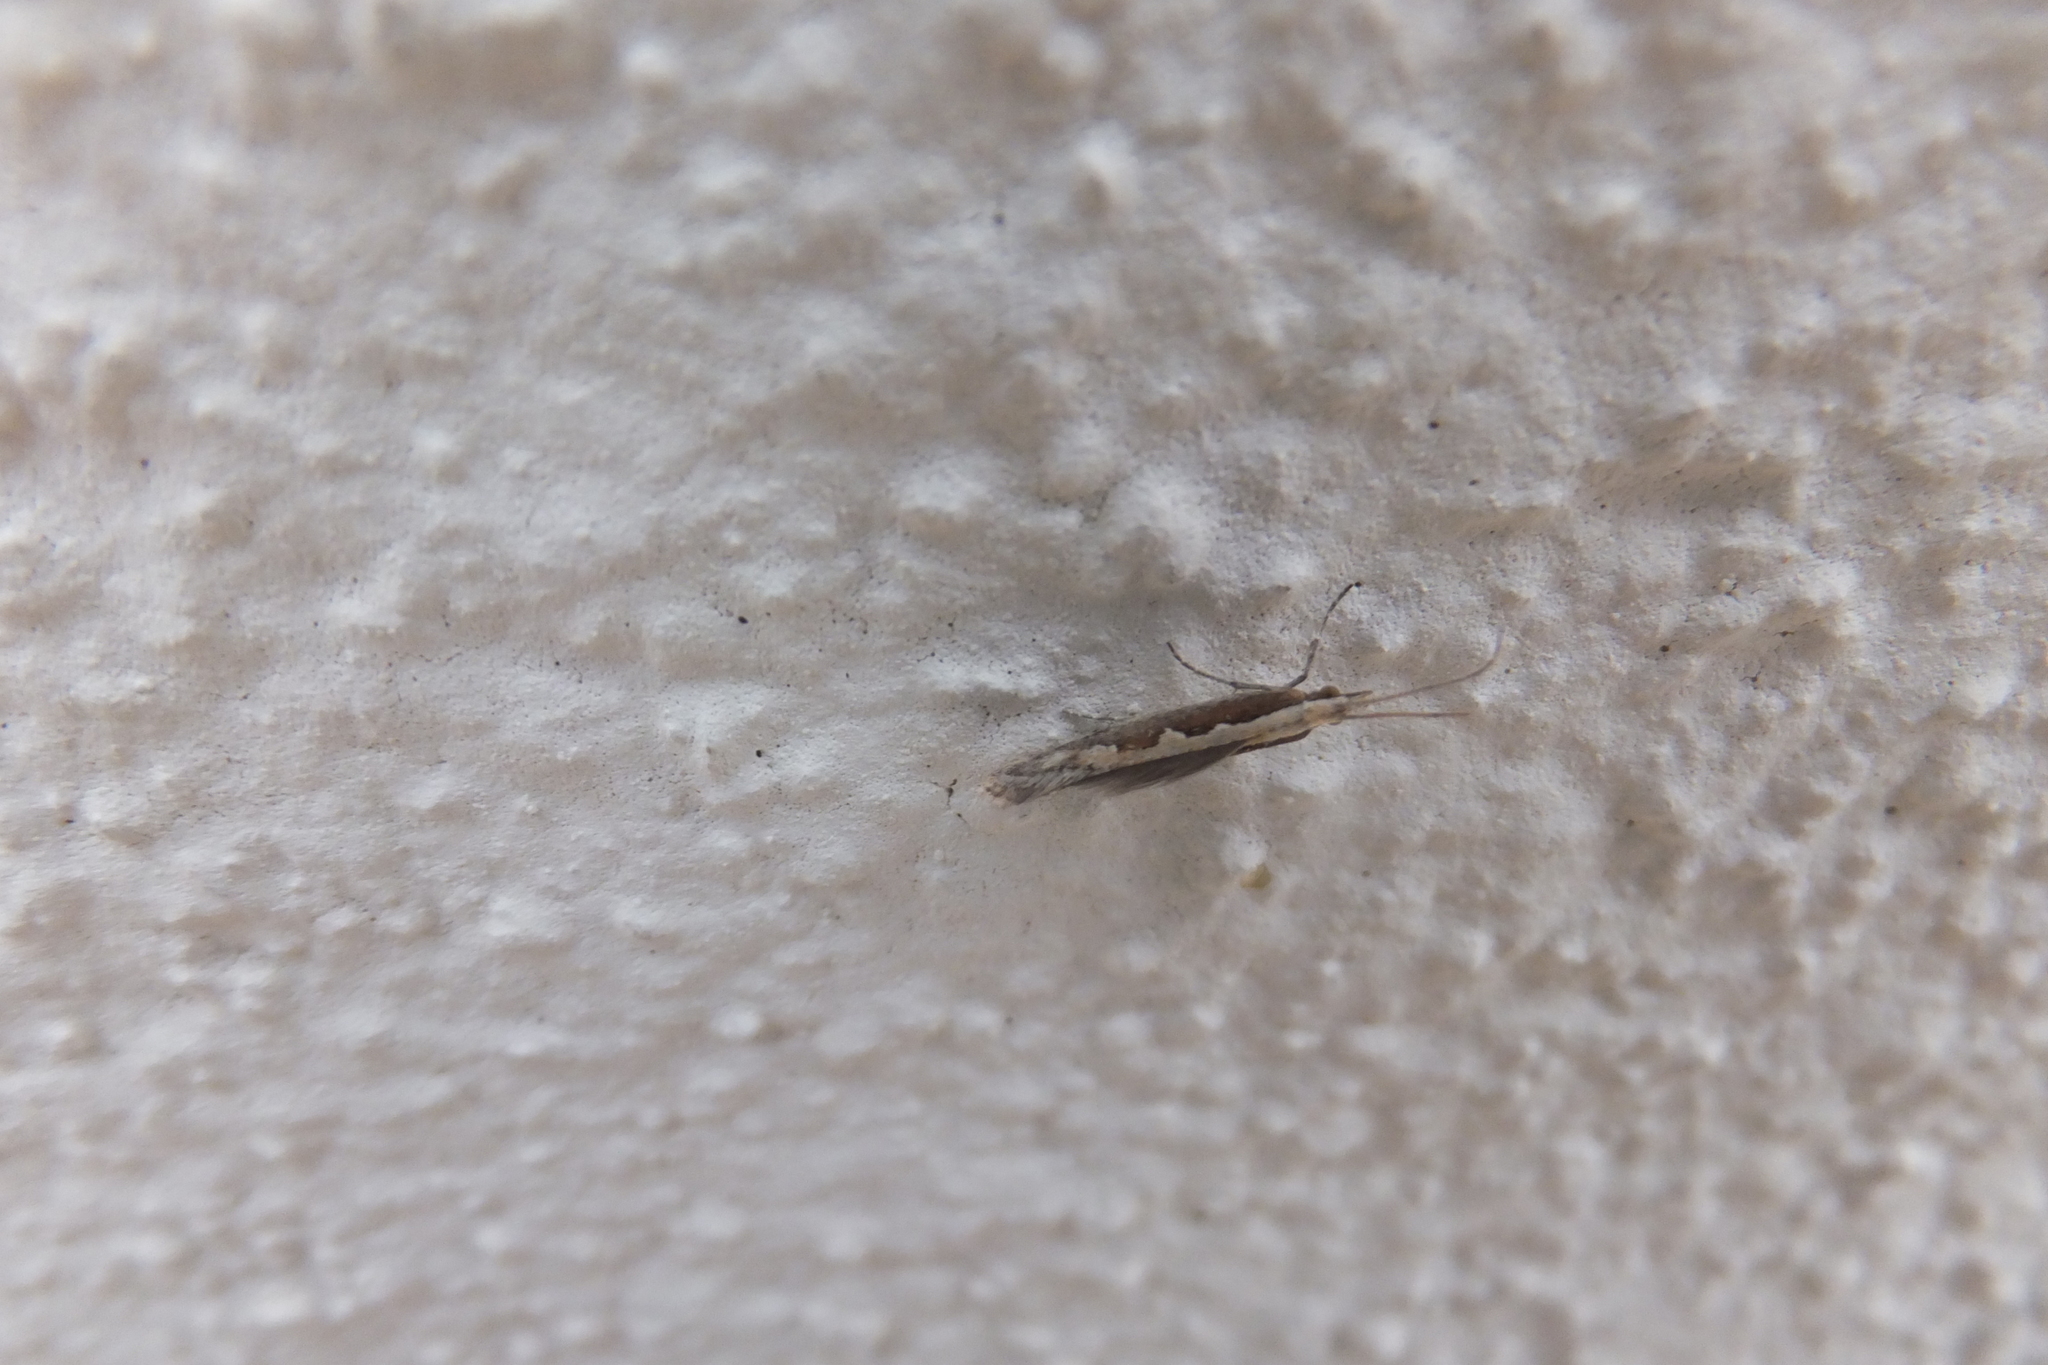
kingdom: Animalia
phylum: Arthropoda
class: Insecta
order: Lepidoptera
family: Plutellidae
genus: Plutella
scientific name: Plutella xylostella
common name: Diamond-back moth
